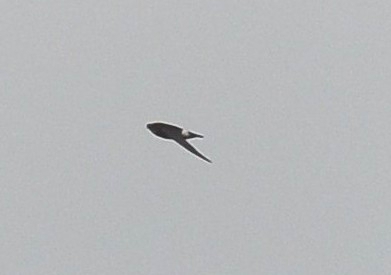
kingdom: Animalia
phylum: Chordata
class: Aves
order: Apodiformes
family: Apodidae
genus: Apus
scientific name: Apus affinis
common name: Little swift
